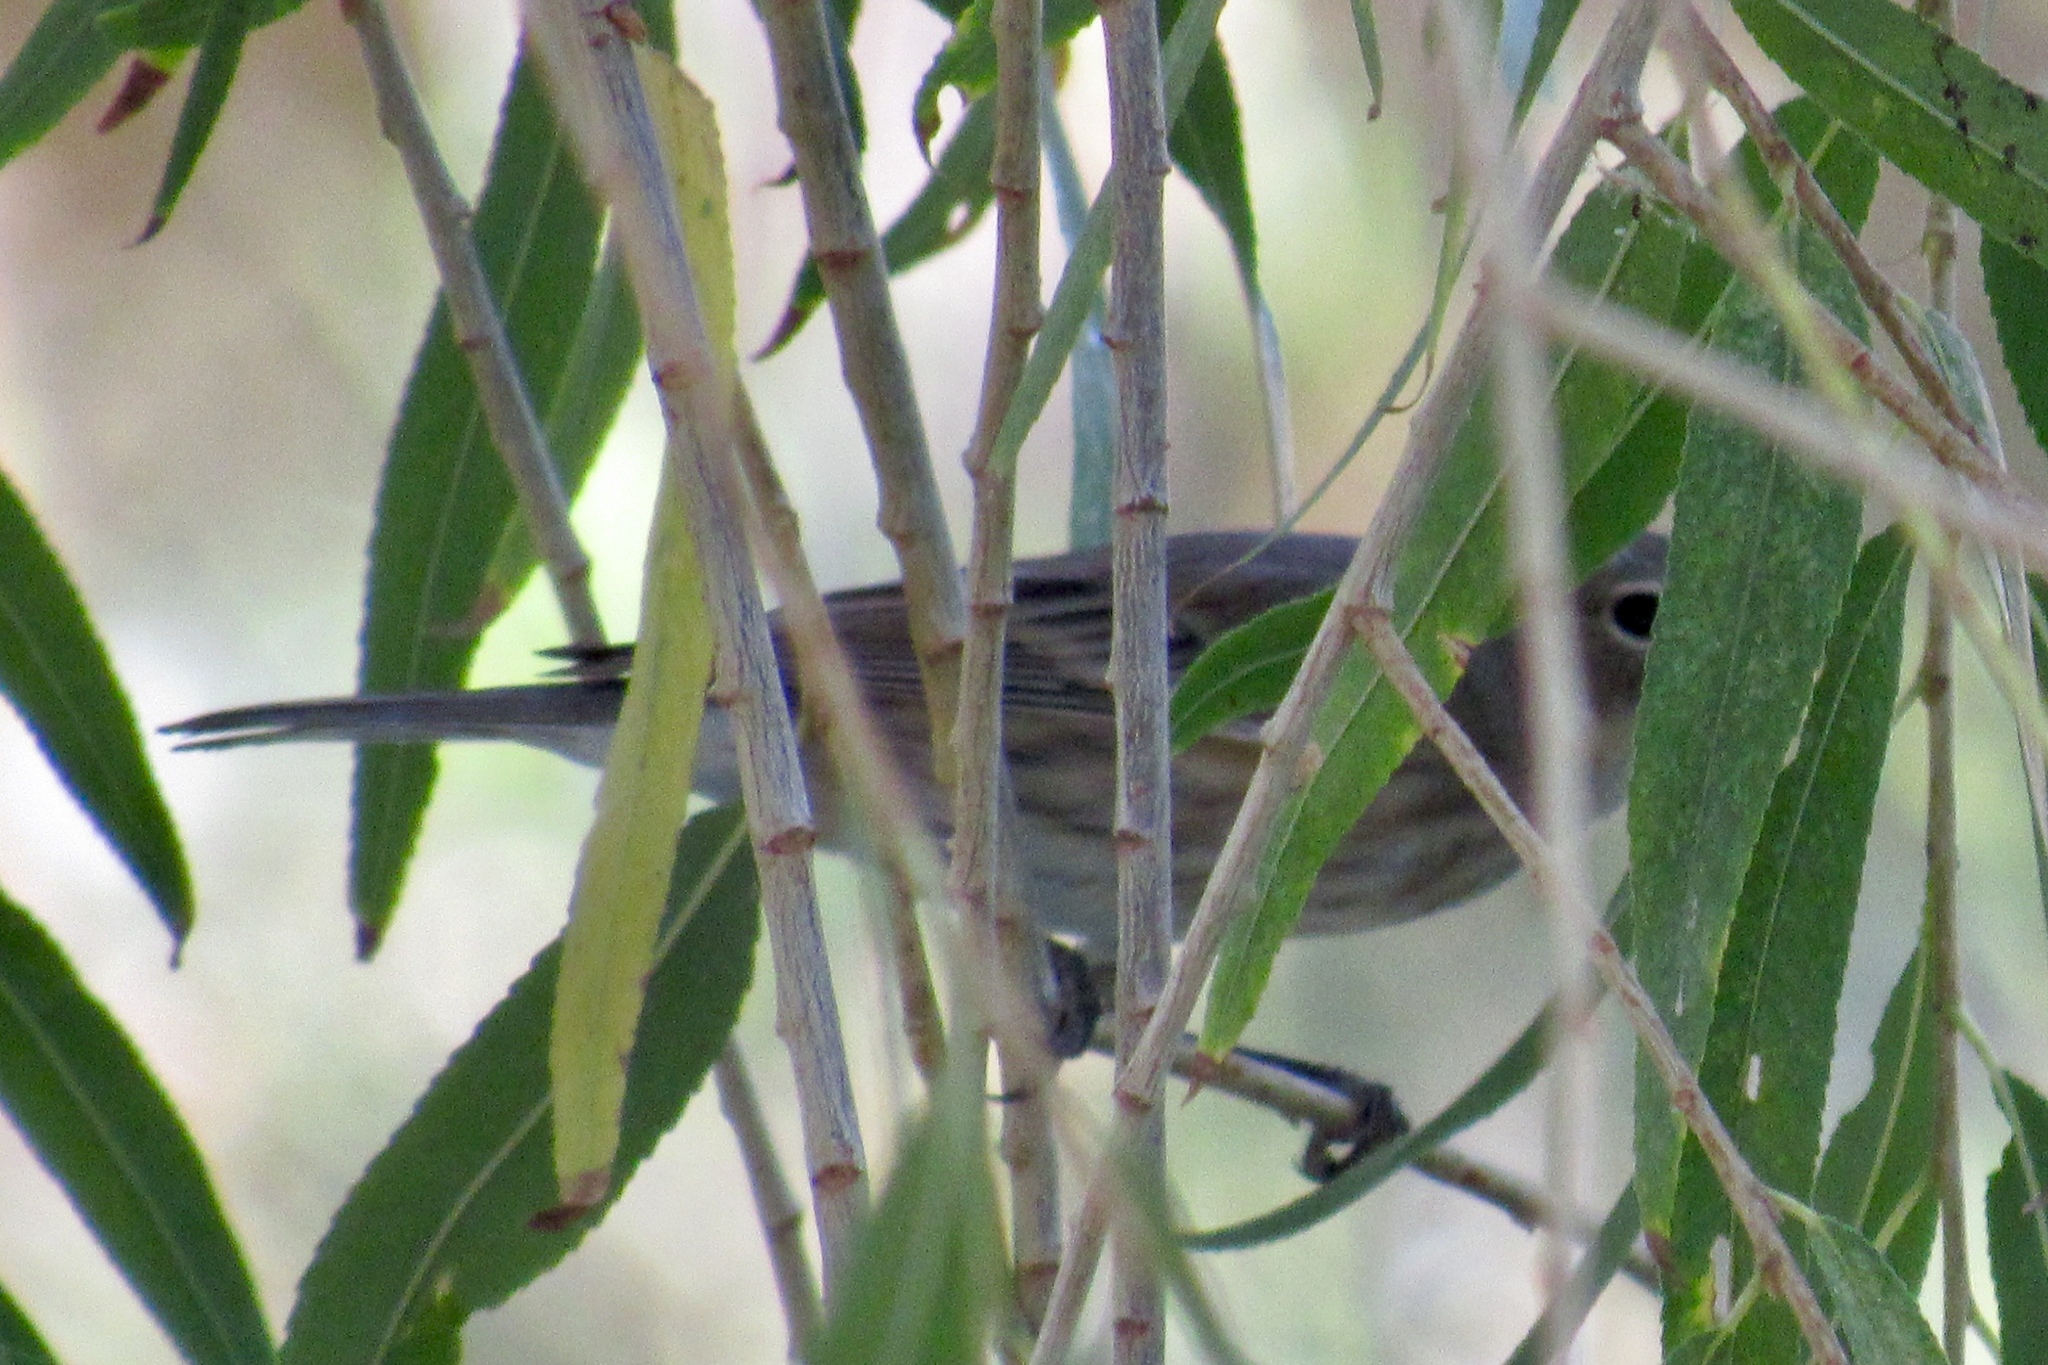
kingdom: Animalia
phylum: Chordata
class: Aves
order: Passeriformes
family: Parulidae
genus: Setophaga
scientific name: Setophaga coronata
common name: Myrtle warbler
